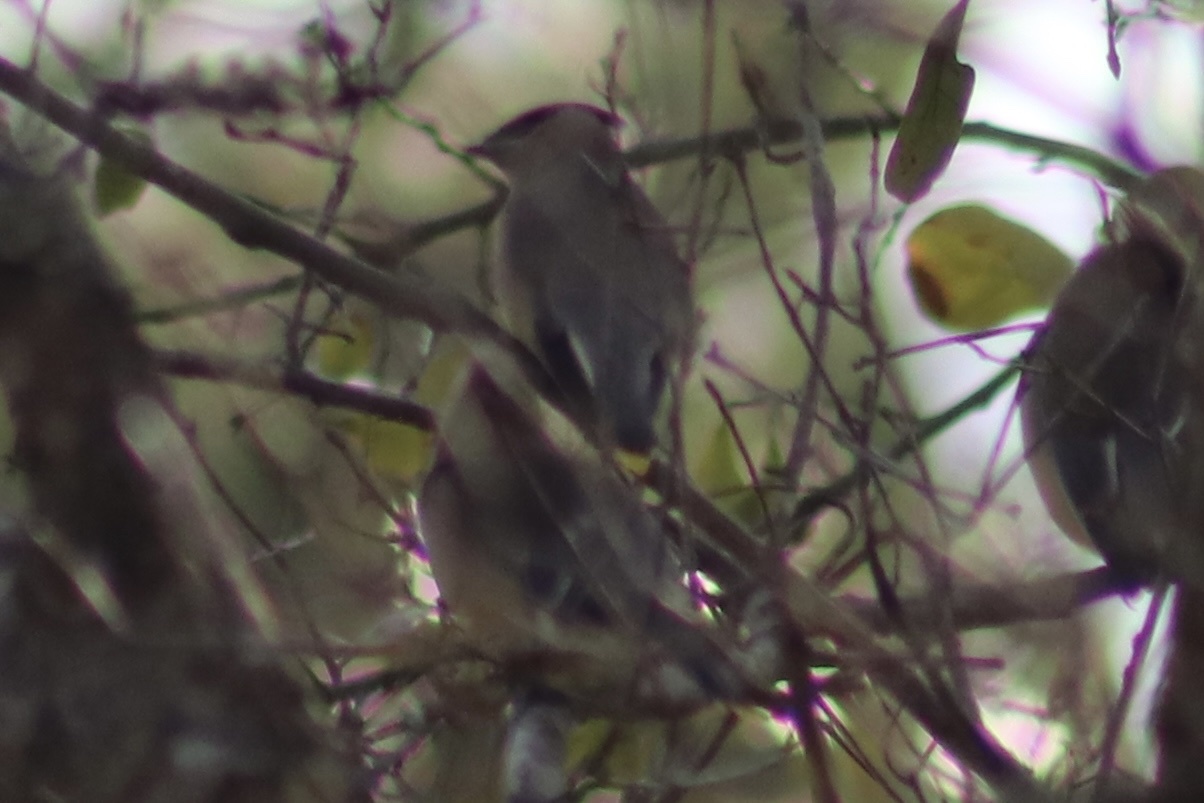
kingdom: Animalia
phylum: Chordata
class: Aves
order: Passeriformes
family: Bombycillidae
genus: Bombycilla
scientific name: Bombycilla cedrorum
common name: Cedar waxwing
